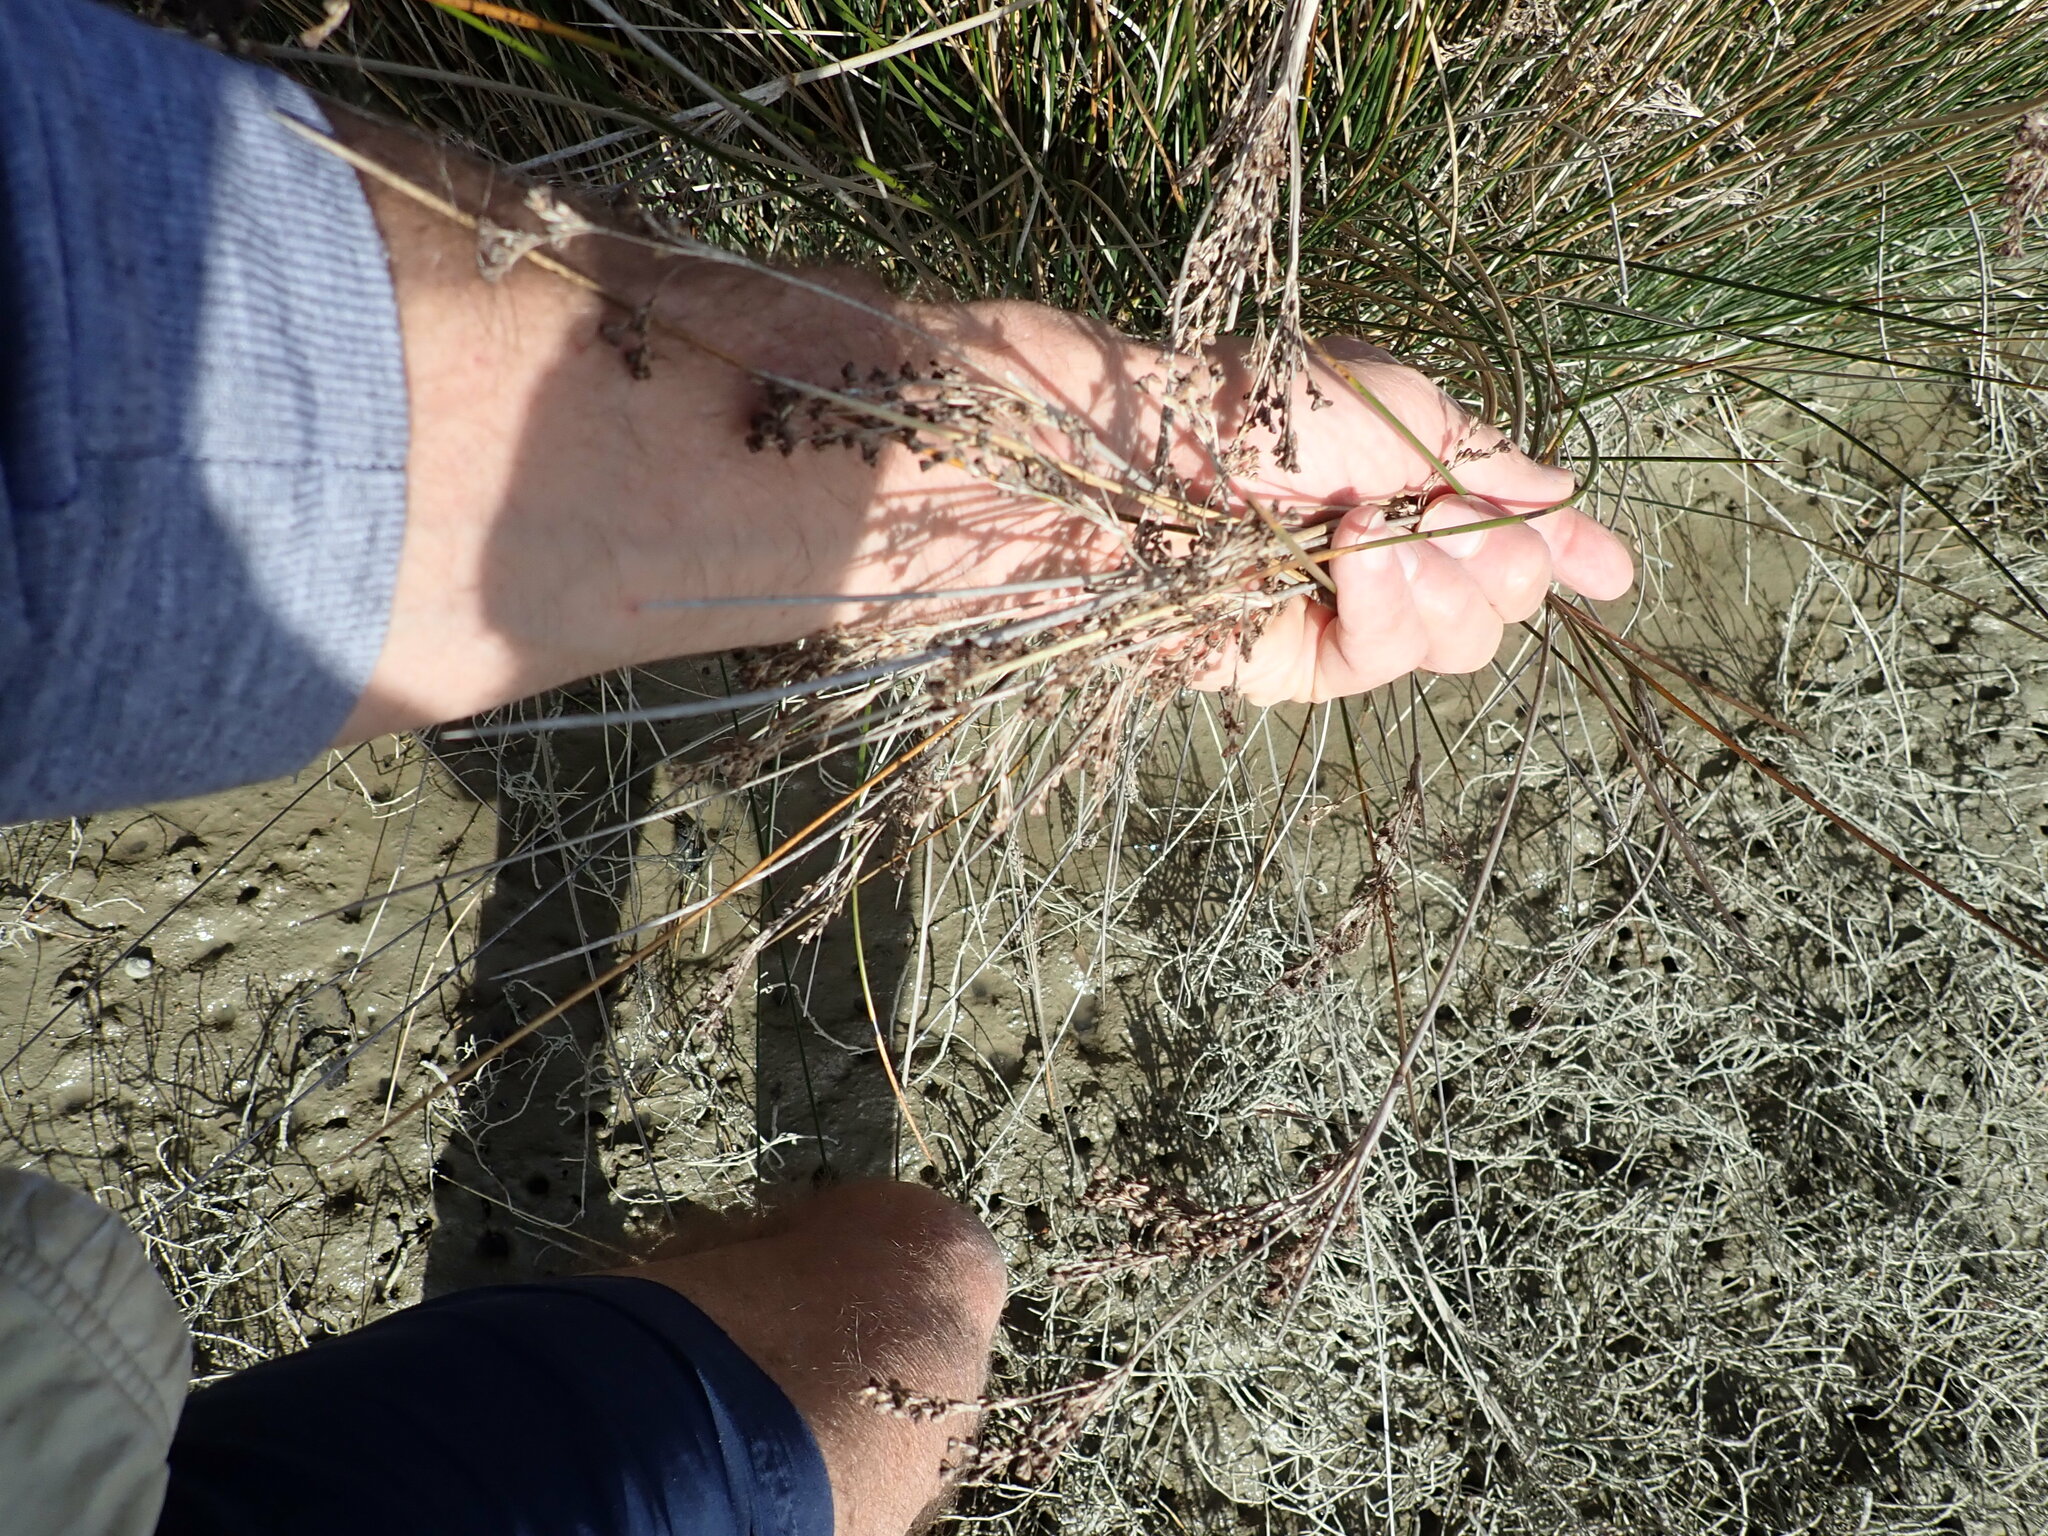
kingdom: Plantae
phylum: Tracheophyta
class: Liliopsida
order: Poales
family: Juncaceae
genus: Juncus
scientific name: Juncus kraussii
